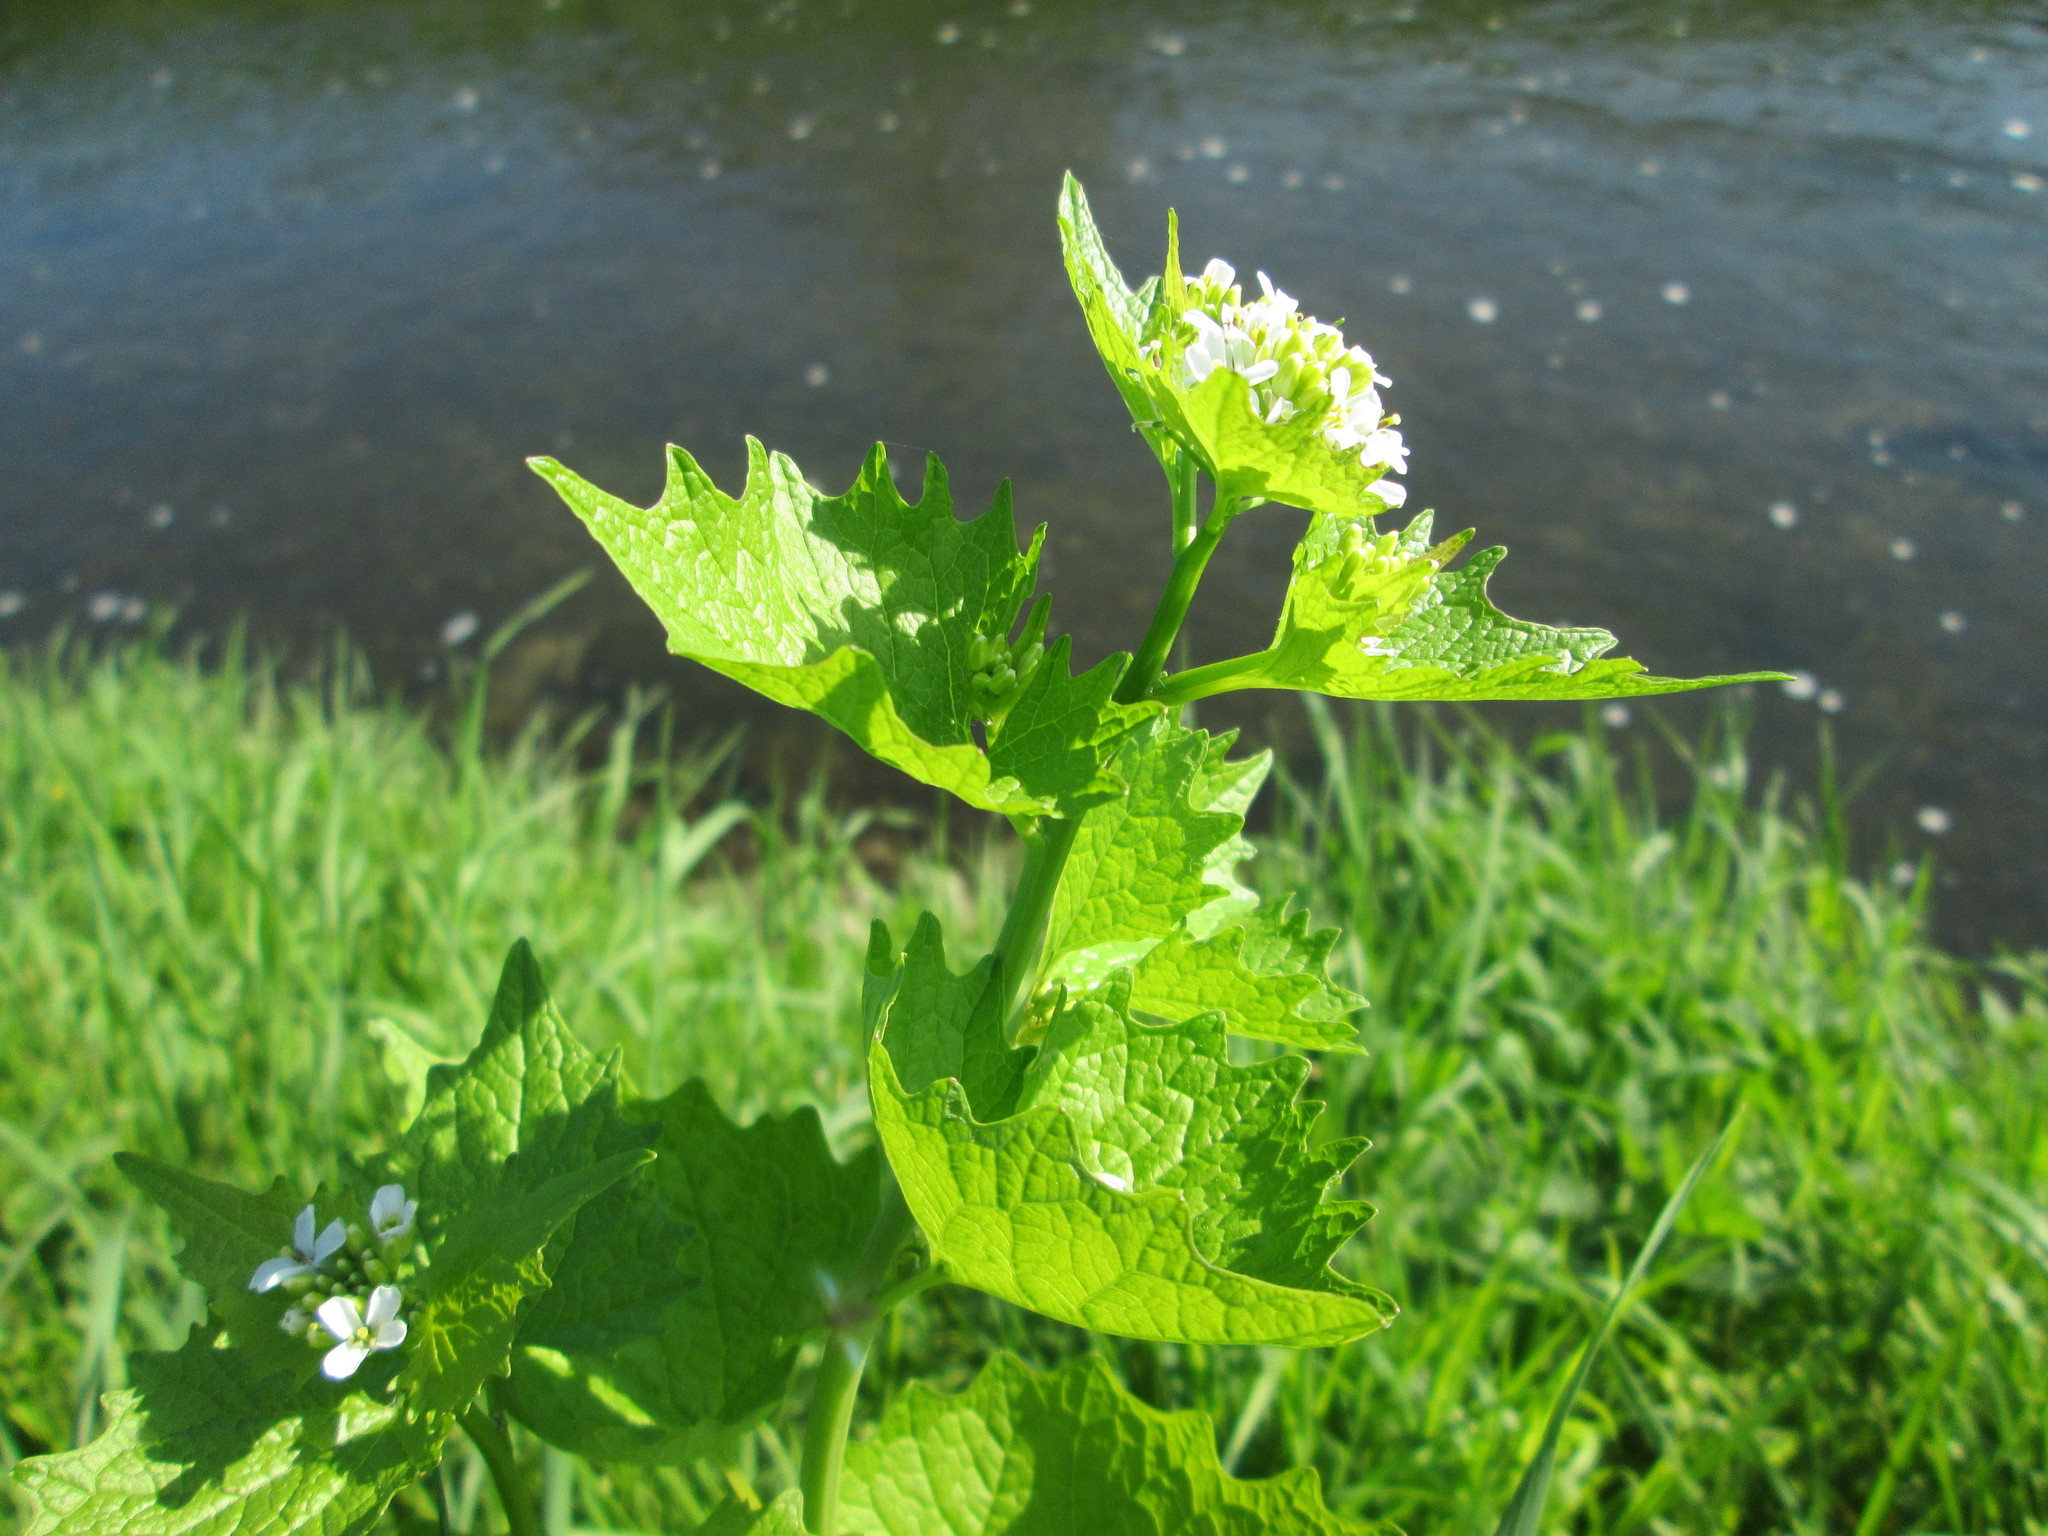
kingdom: Plantae
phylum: Tracheophyta
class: Magnoliopsida
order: Brassicales
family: Brassicaceae
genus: Alliaria
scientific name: Alliaria petiolata
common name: Garlic mustard
